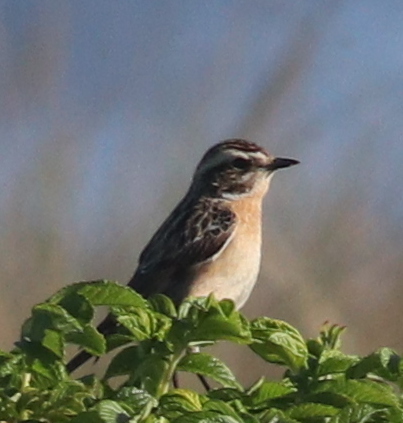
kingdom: Animalia
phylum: Chordata
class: Aves
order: Passeriformes
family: Muscicapidae
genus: Saxicola
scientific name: Saxicola rubetra
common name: Whinchat
